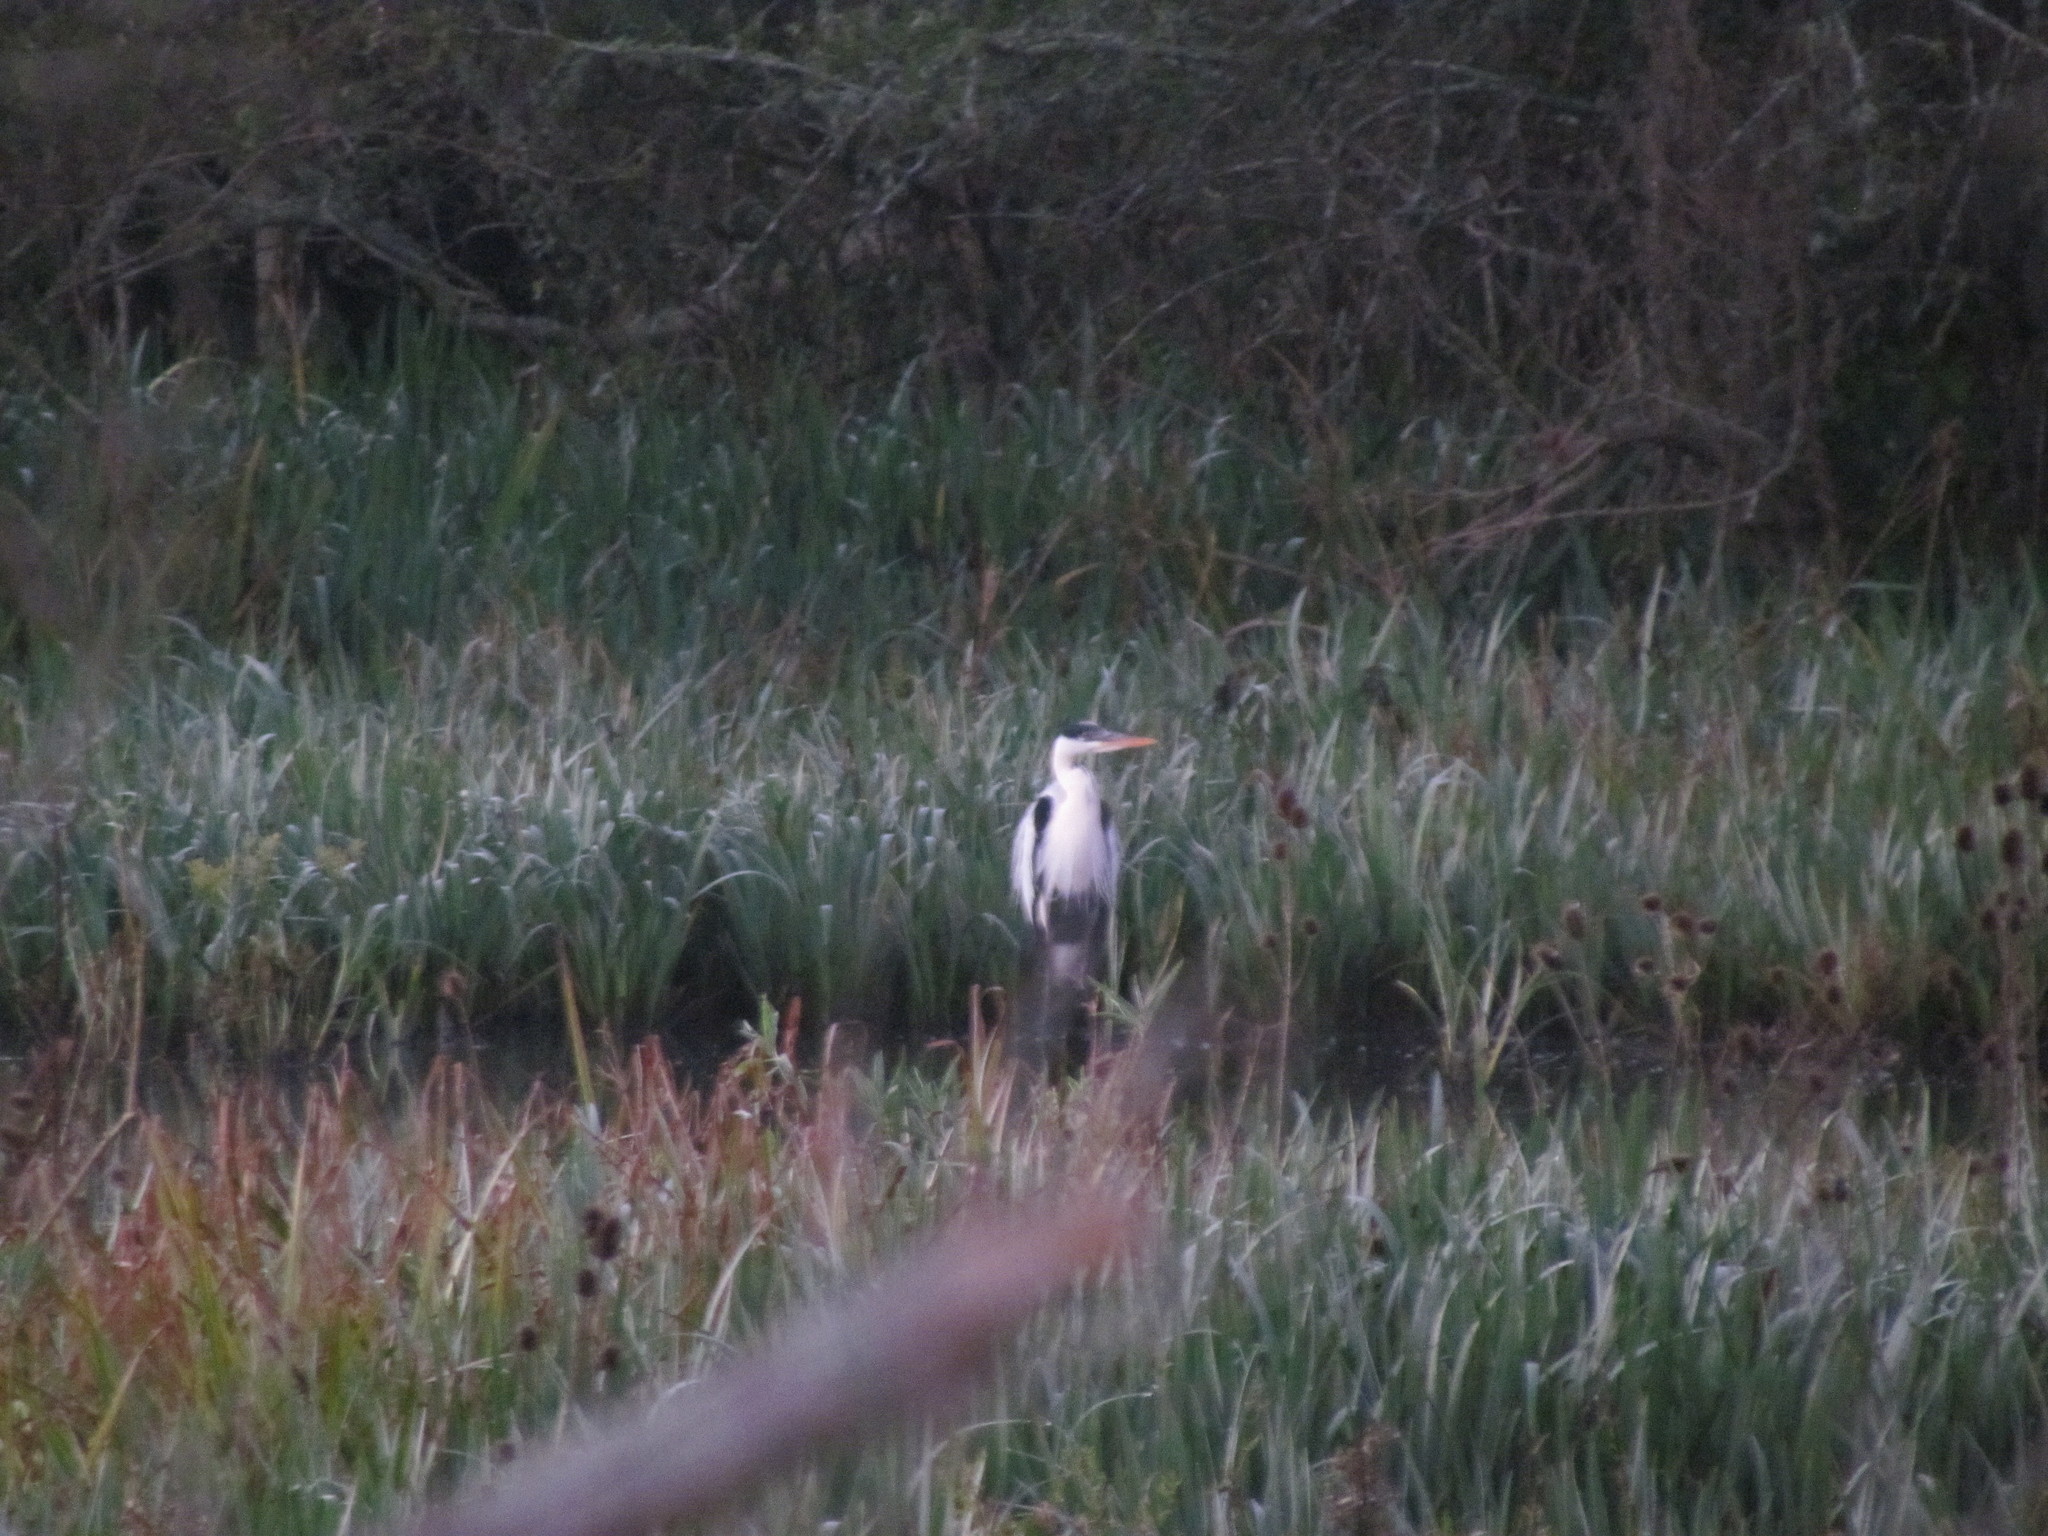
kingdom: Animalia
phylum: Chordata
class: Aves
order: Pelecaniformes
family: Ardeidae
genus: Ardea
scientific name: Ardea cocoi
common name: Cocoi heron
